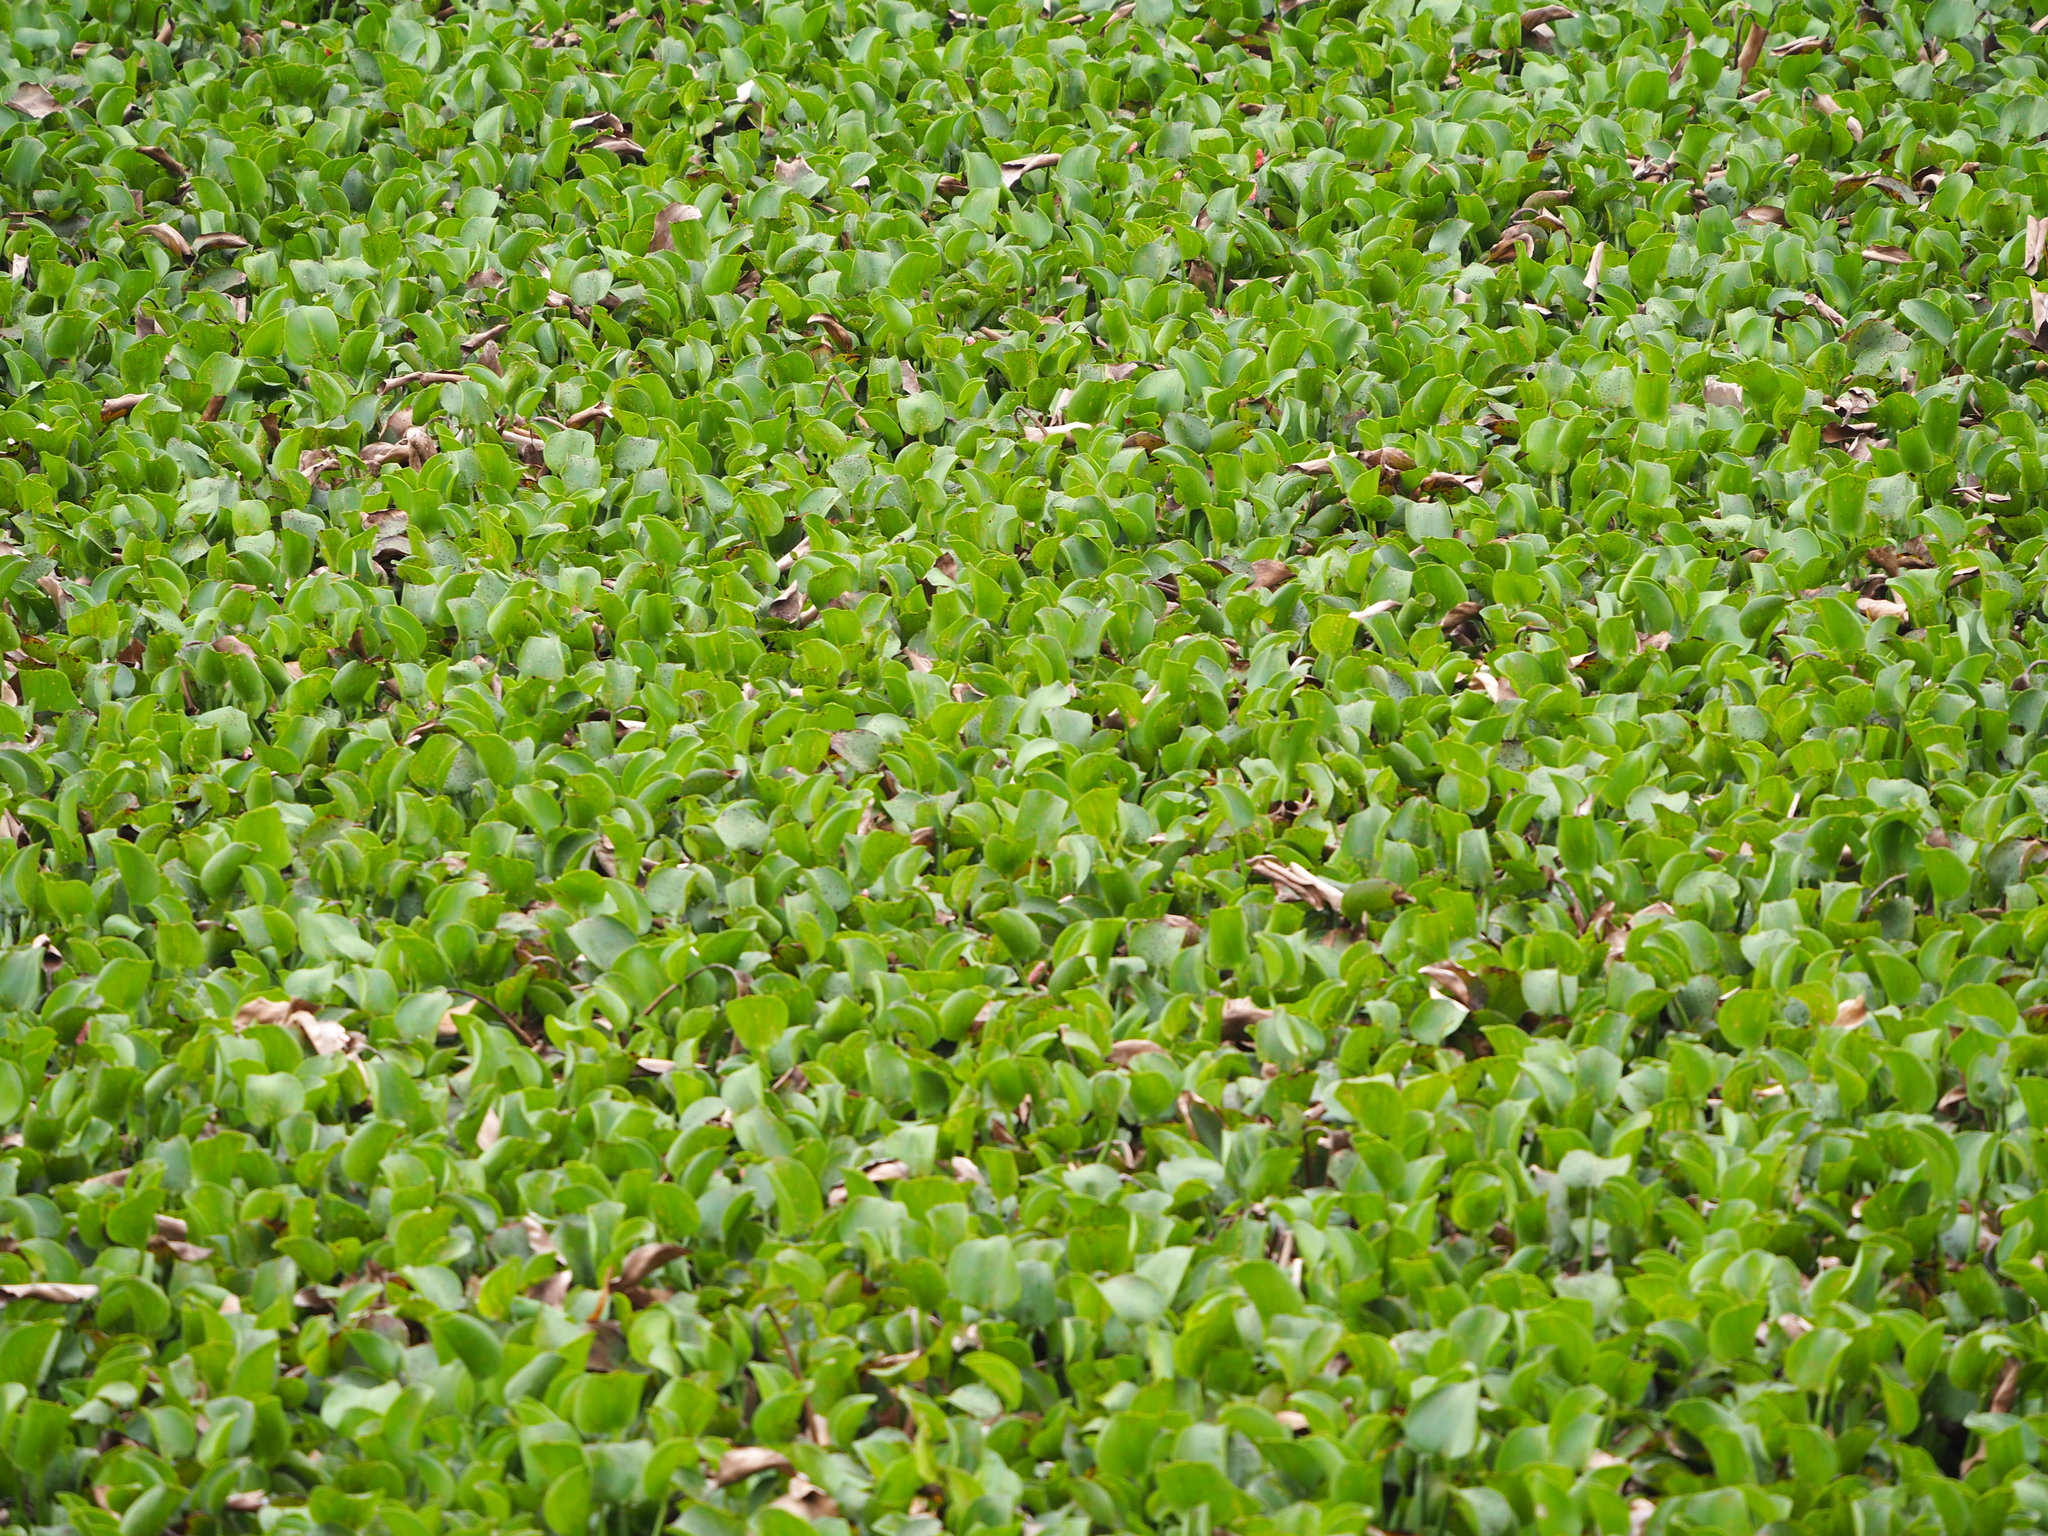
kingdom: Plantae
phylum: Tracheophyta
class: Liliopsida
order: Commelinales
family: Pontederiaceae
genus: Pontederia
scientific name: Pontederia crassipes
